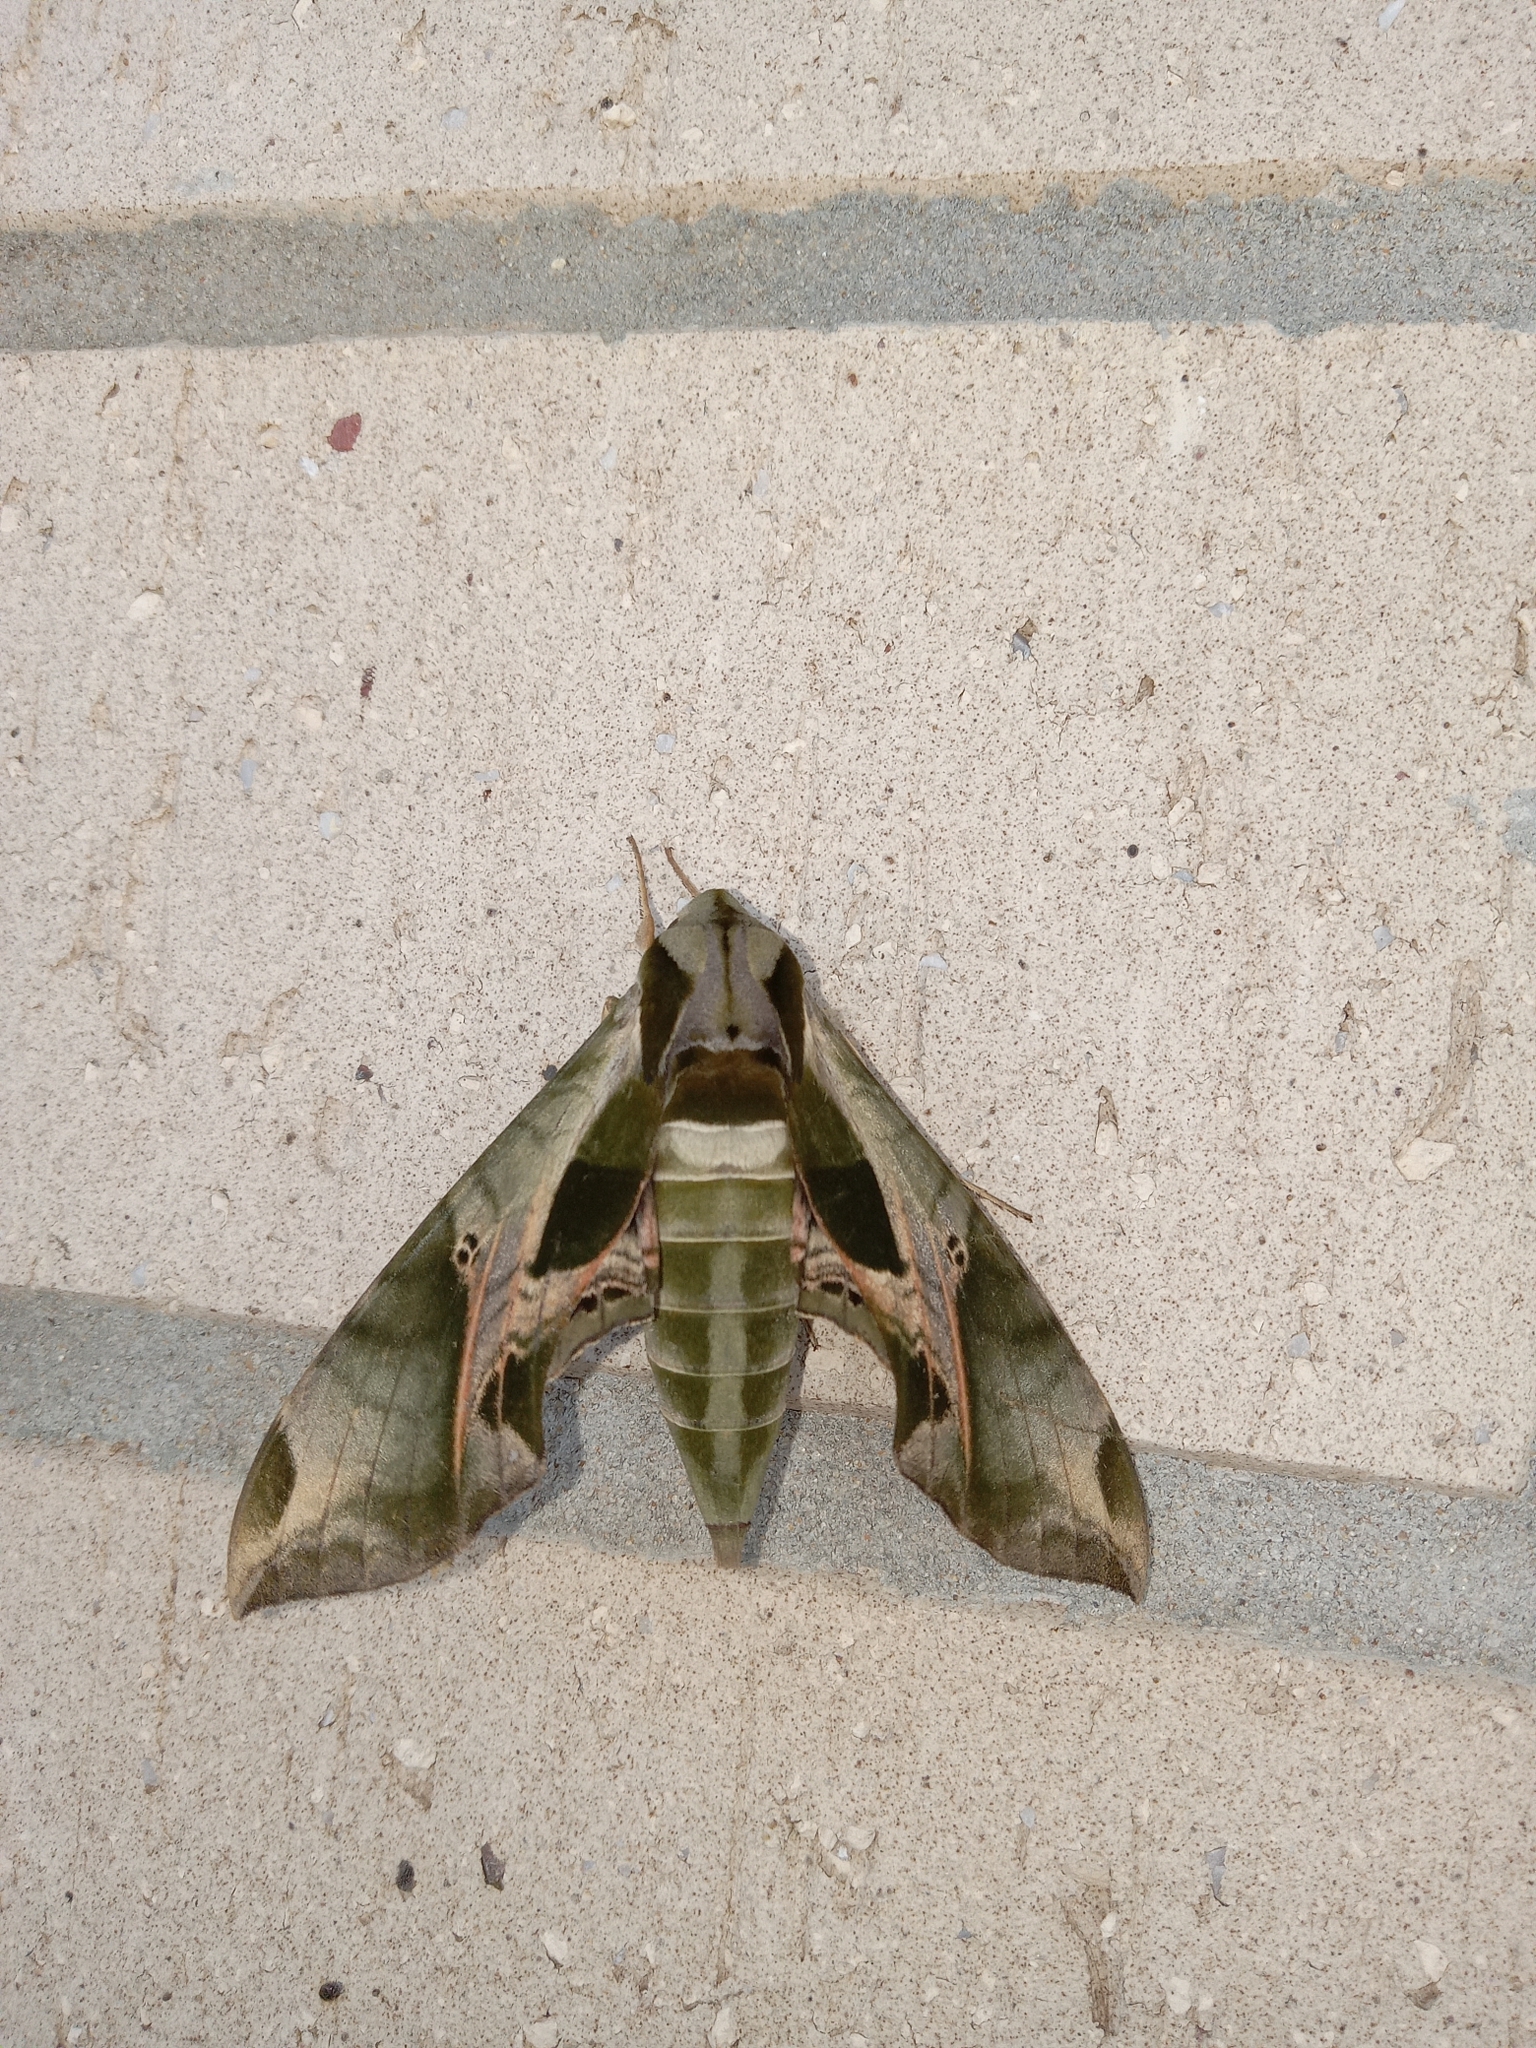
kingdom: Animalia
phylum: Arthropoda
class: Insecta
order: Lepidoptera
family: Sphingidae
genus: Eumorpha
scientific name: Eumorpha pandorus
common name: Pandora sphinx
